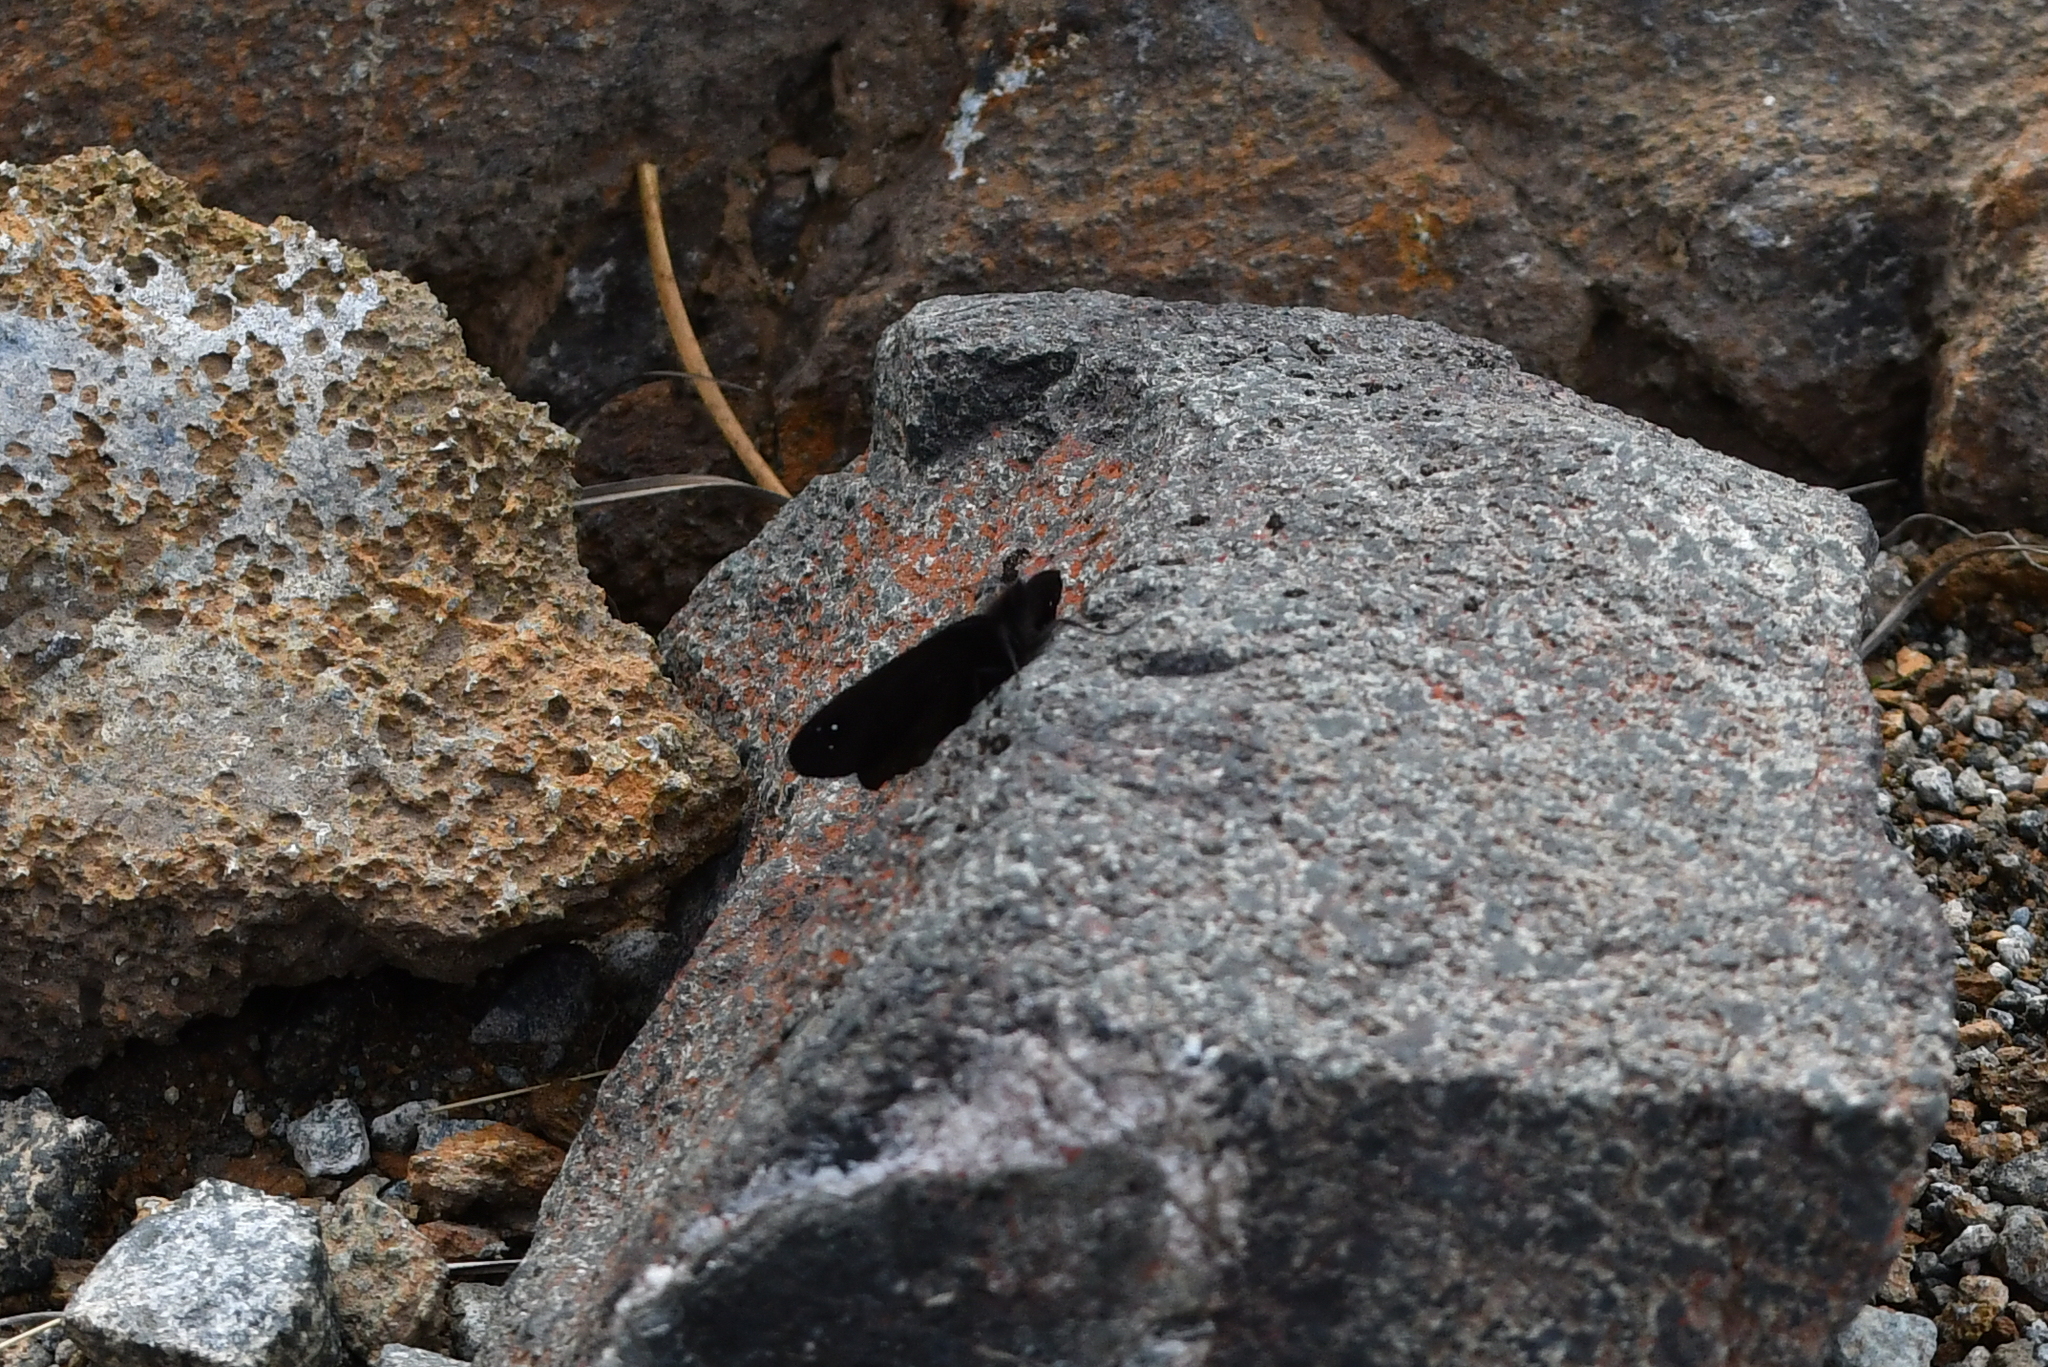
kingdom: Animalia
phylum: Arthropoda
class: Insecta
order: Lepidoptera
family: Nymphalidae
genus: Erebia
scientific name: Erebia Percnodaimon merula
